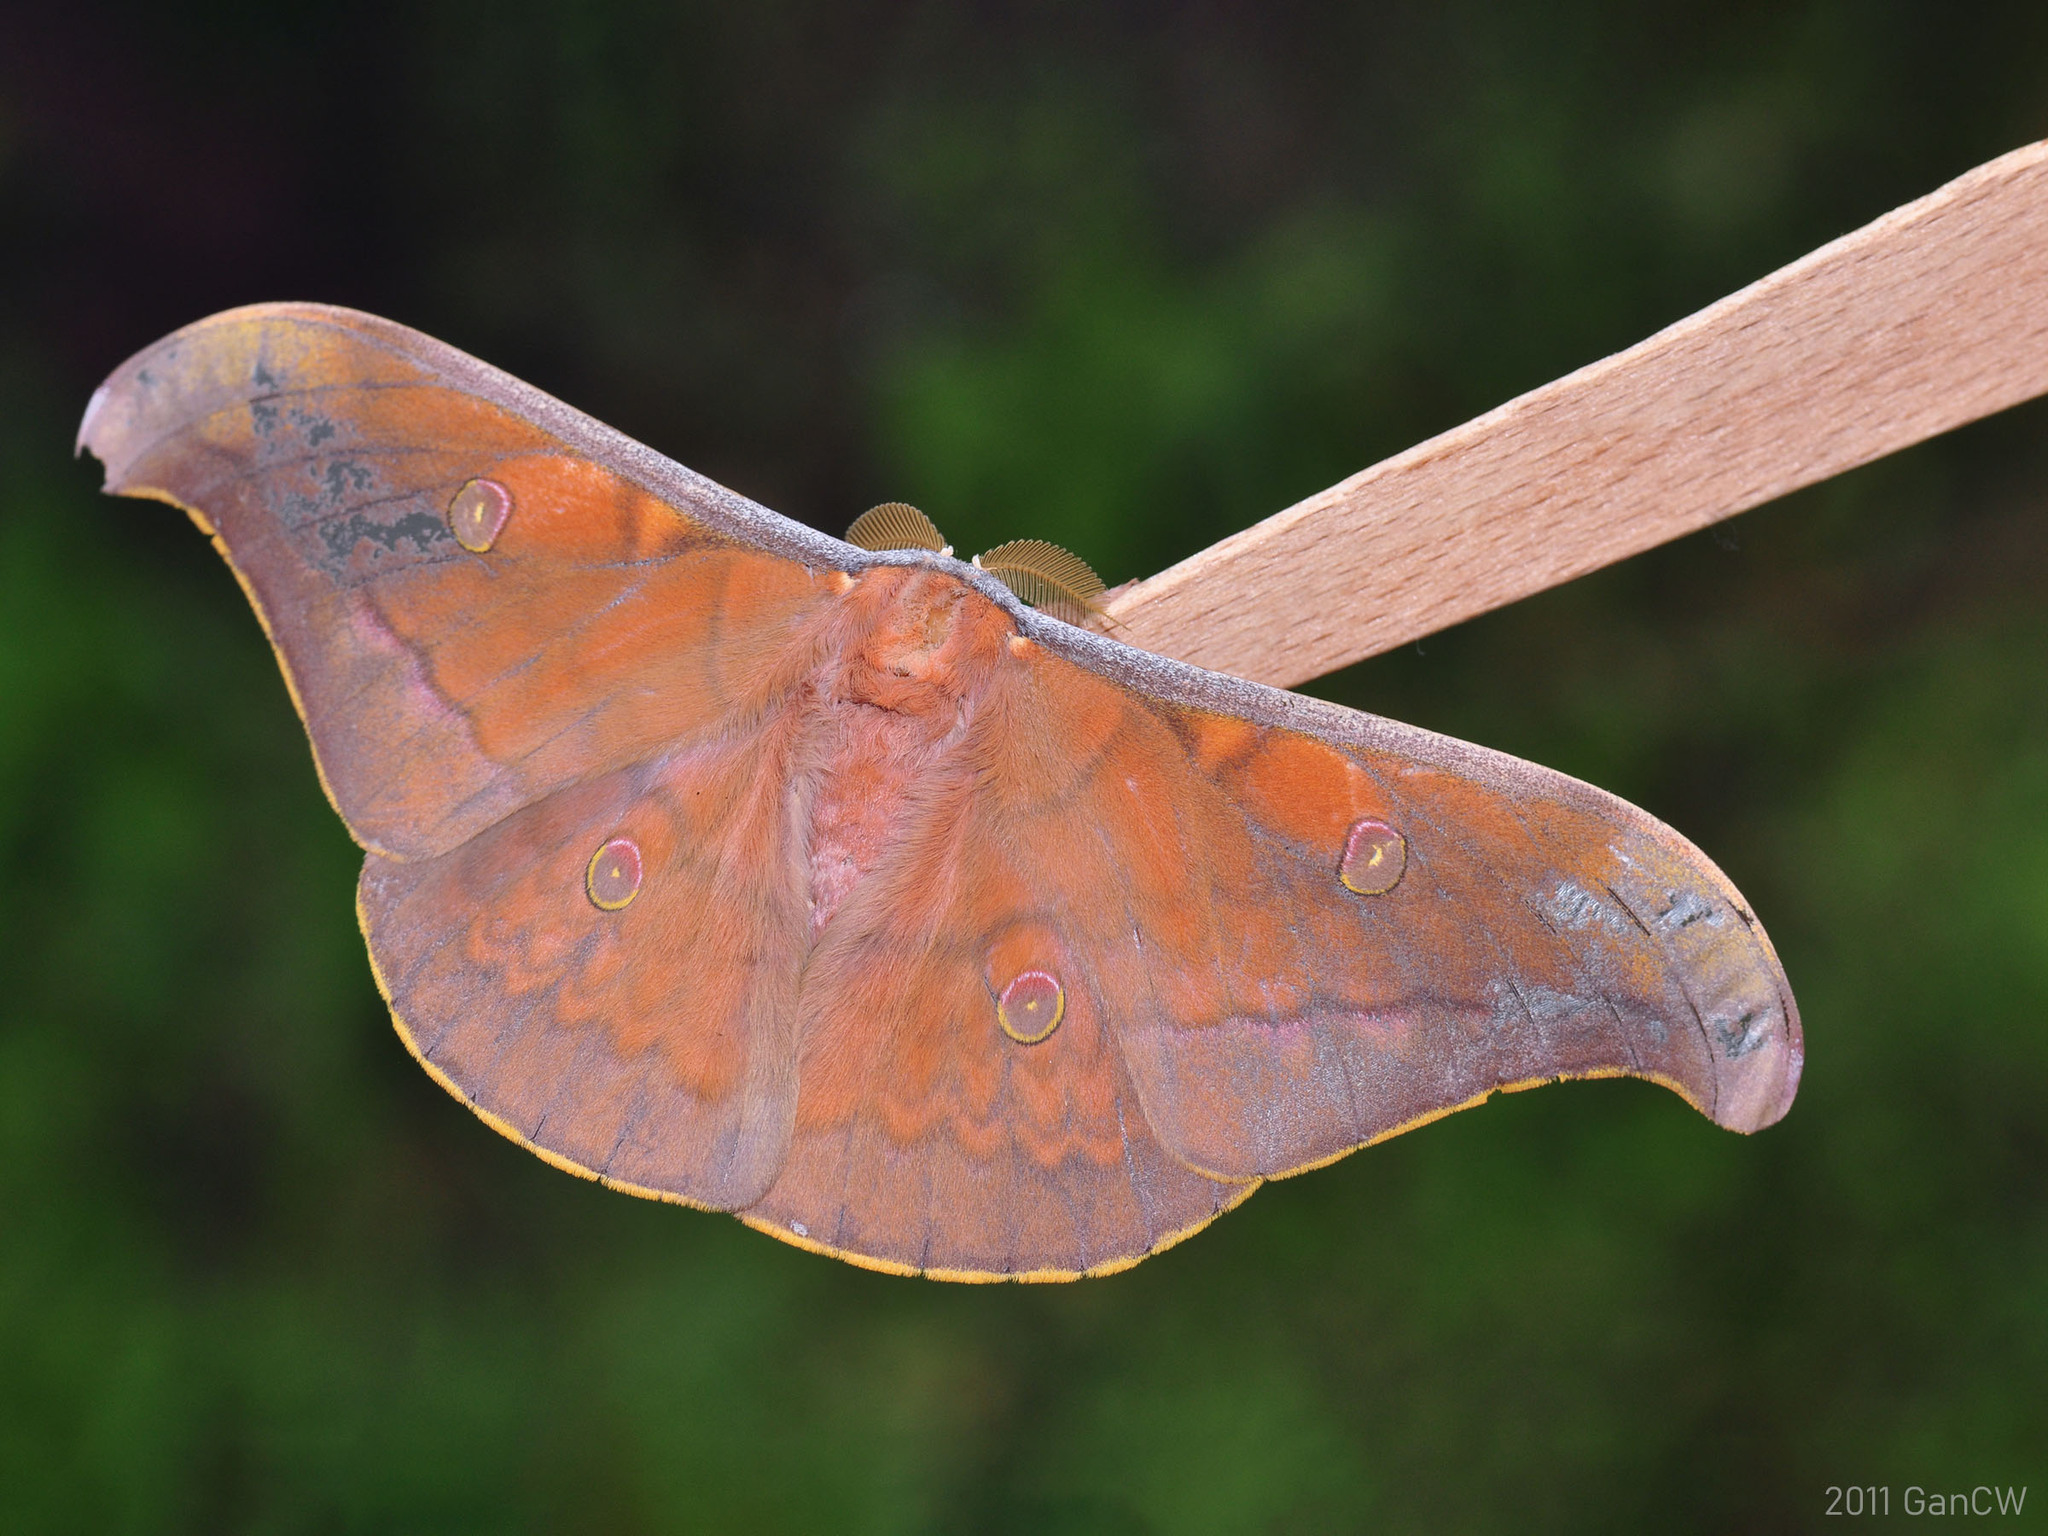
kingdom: Animalia
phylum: Arthropoda
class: Insecta
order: Lepidoptera
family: Saturniidae
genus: Antheraea
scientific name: Antheraea broschi
